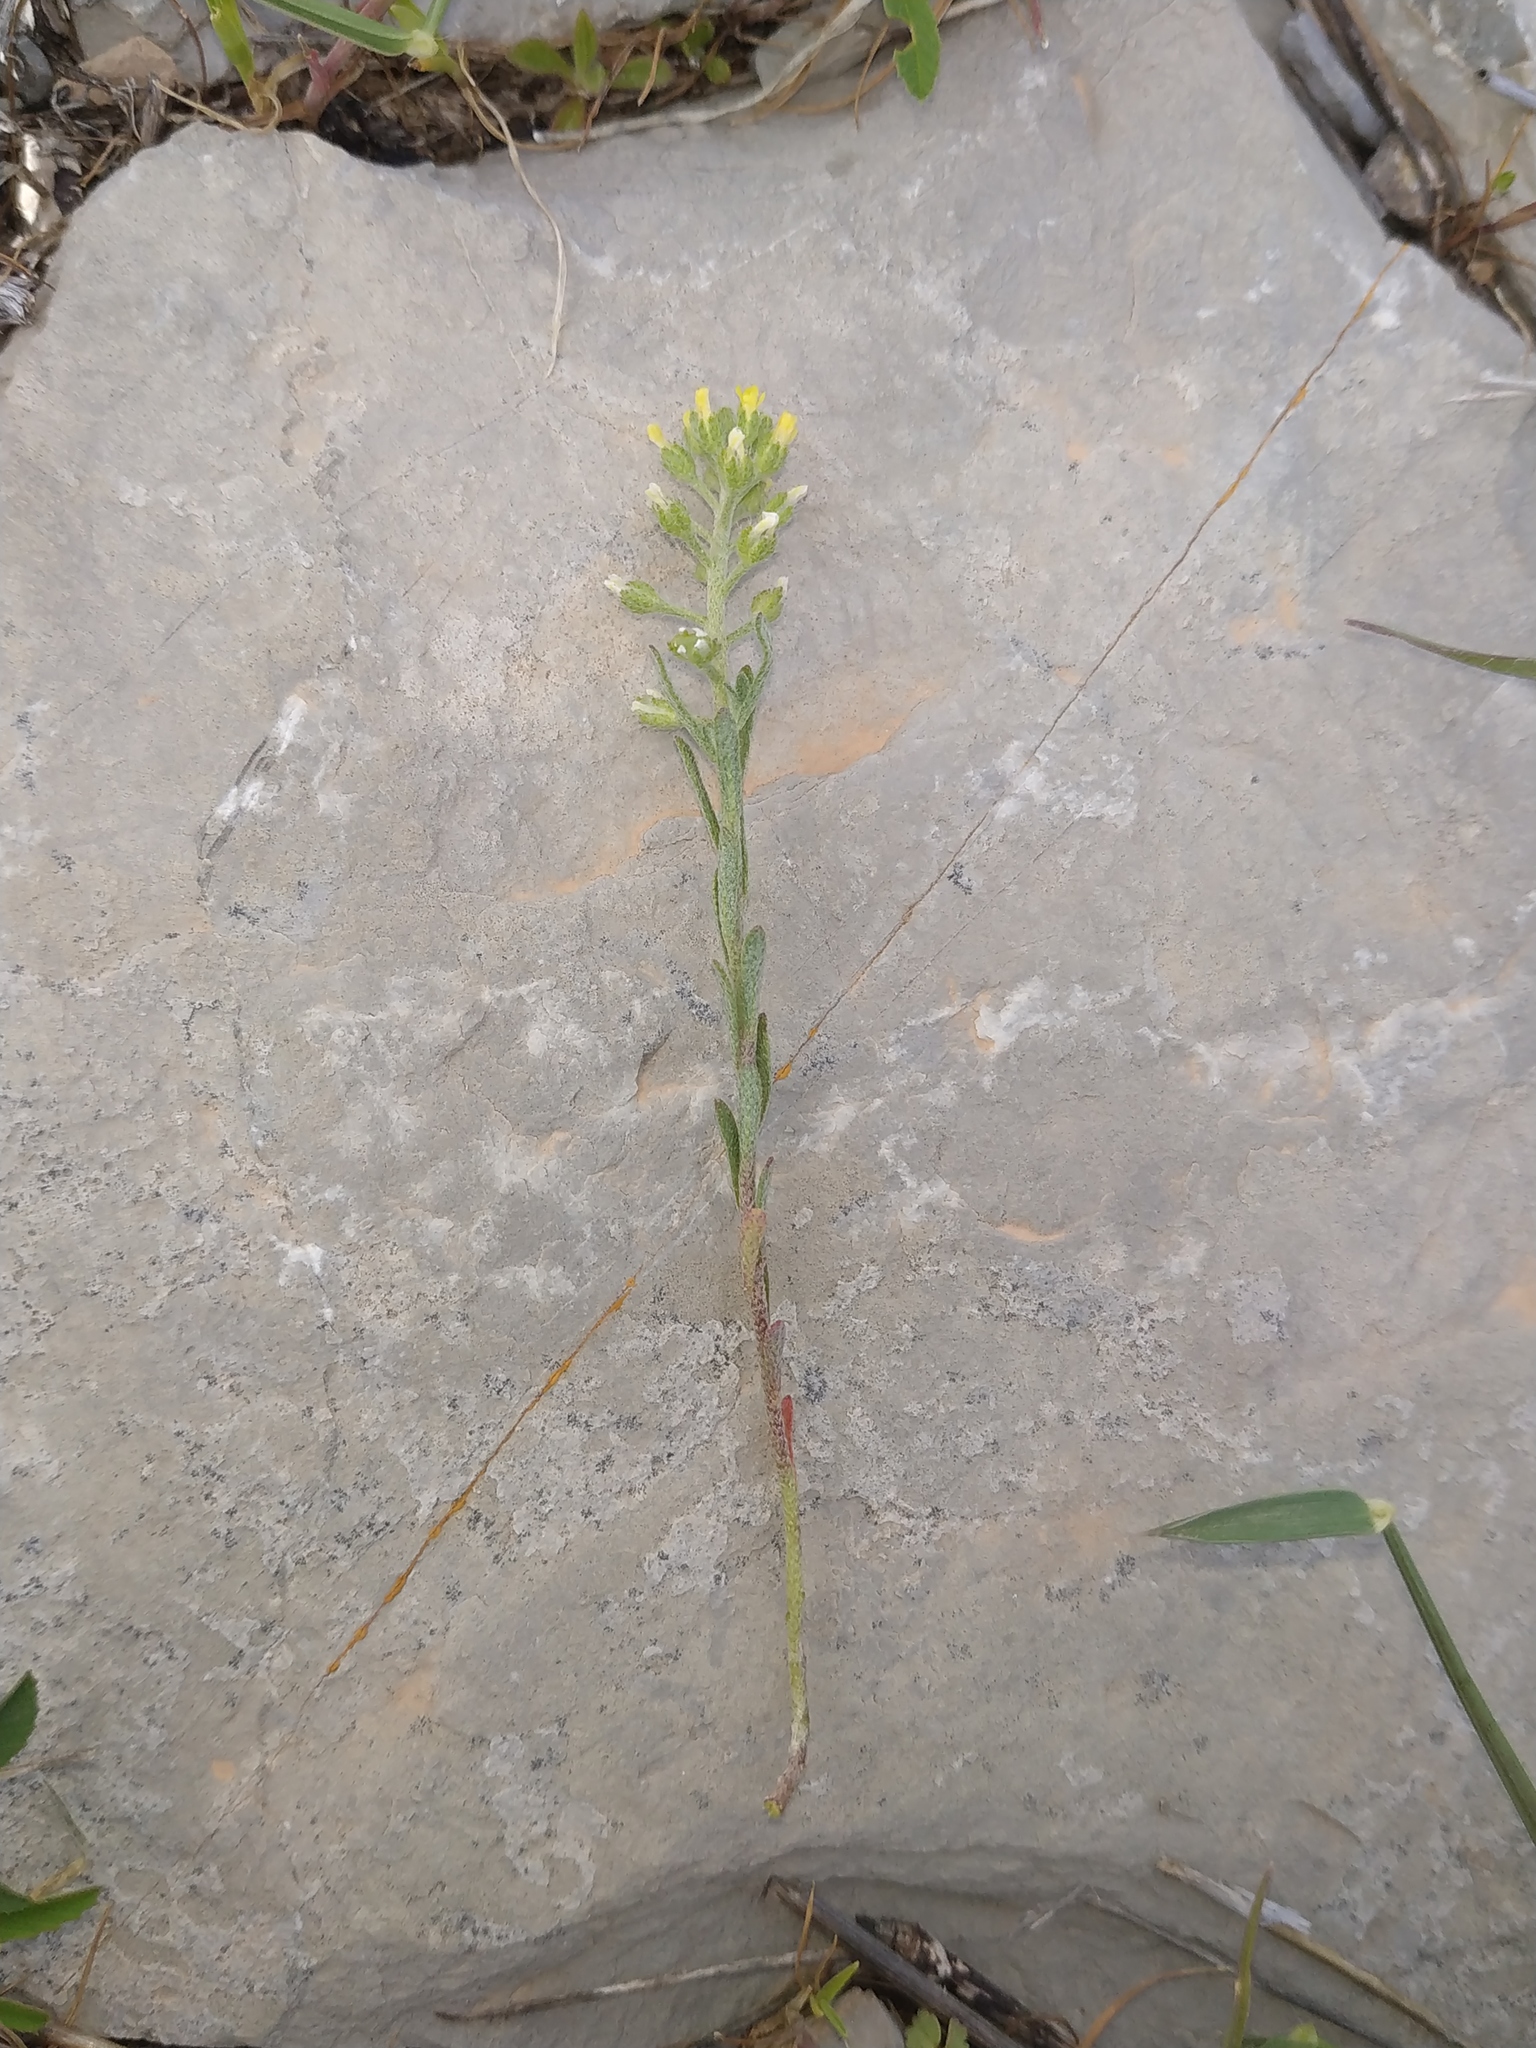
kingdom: Plantae
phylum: Tracheophyta
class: Magnoliopsida
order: Brassicales
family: Brassicaceae
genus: Alyssum
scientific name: Alyssum alyssoides
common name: Small alison
